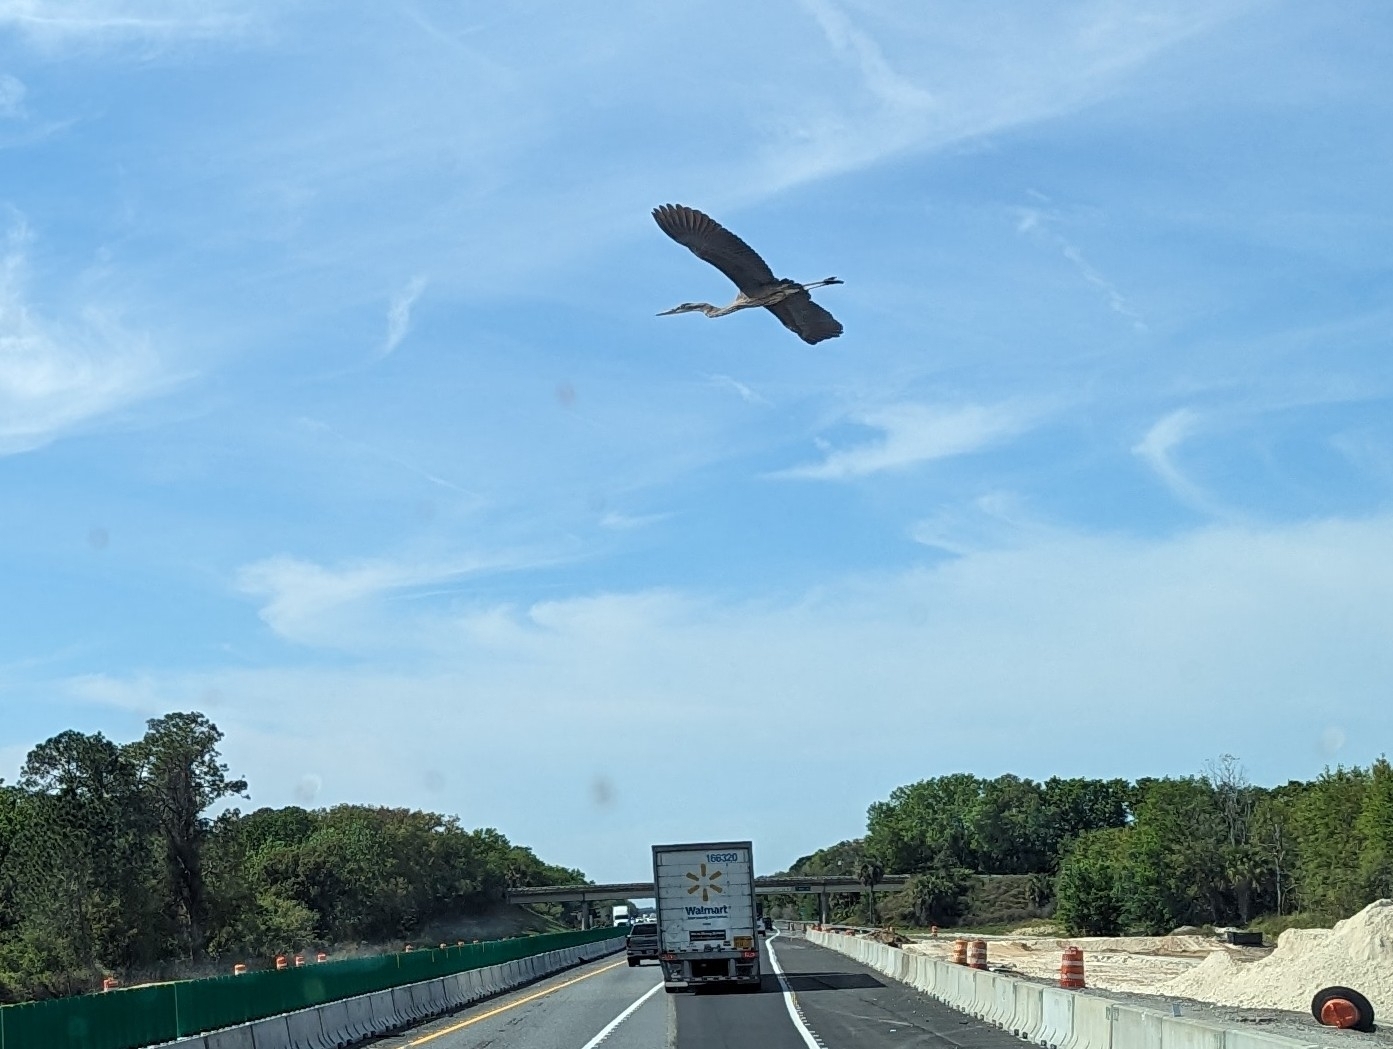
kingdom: Animalia
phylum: Chordata
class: Aves
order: Pelecaniformes
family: Ardeidae
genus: Ardea
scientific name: Ardea herodias
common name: Great blue heron
